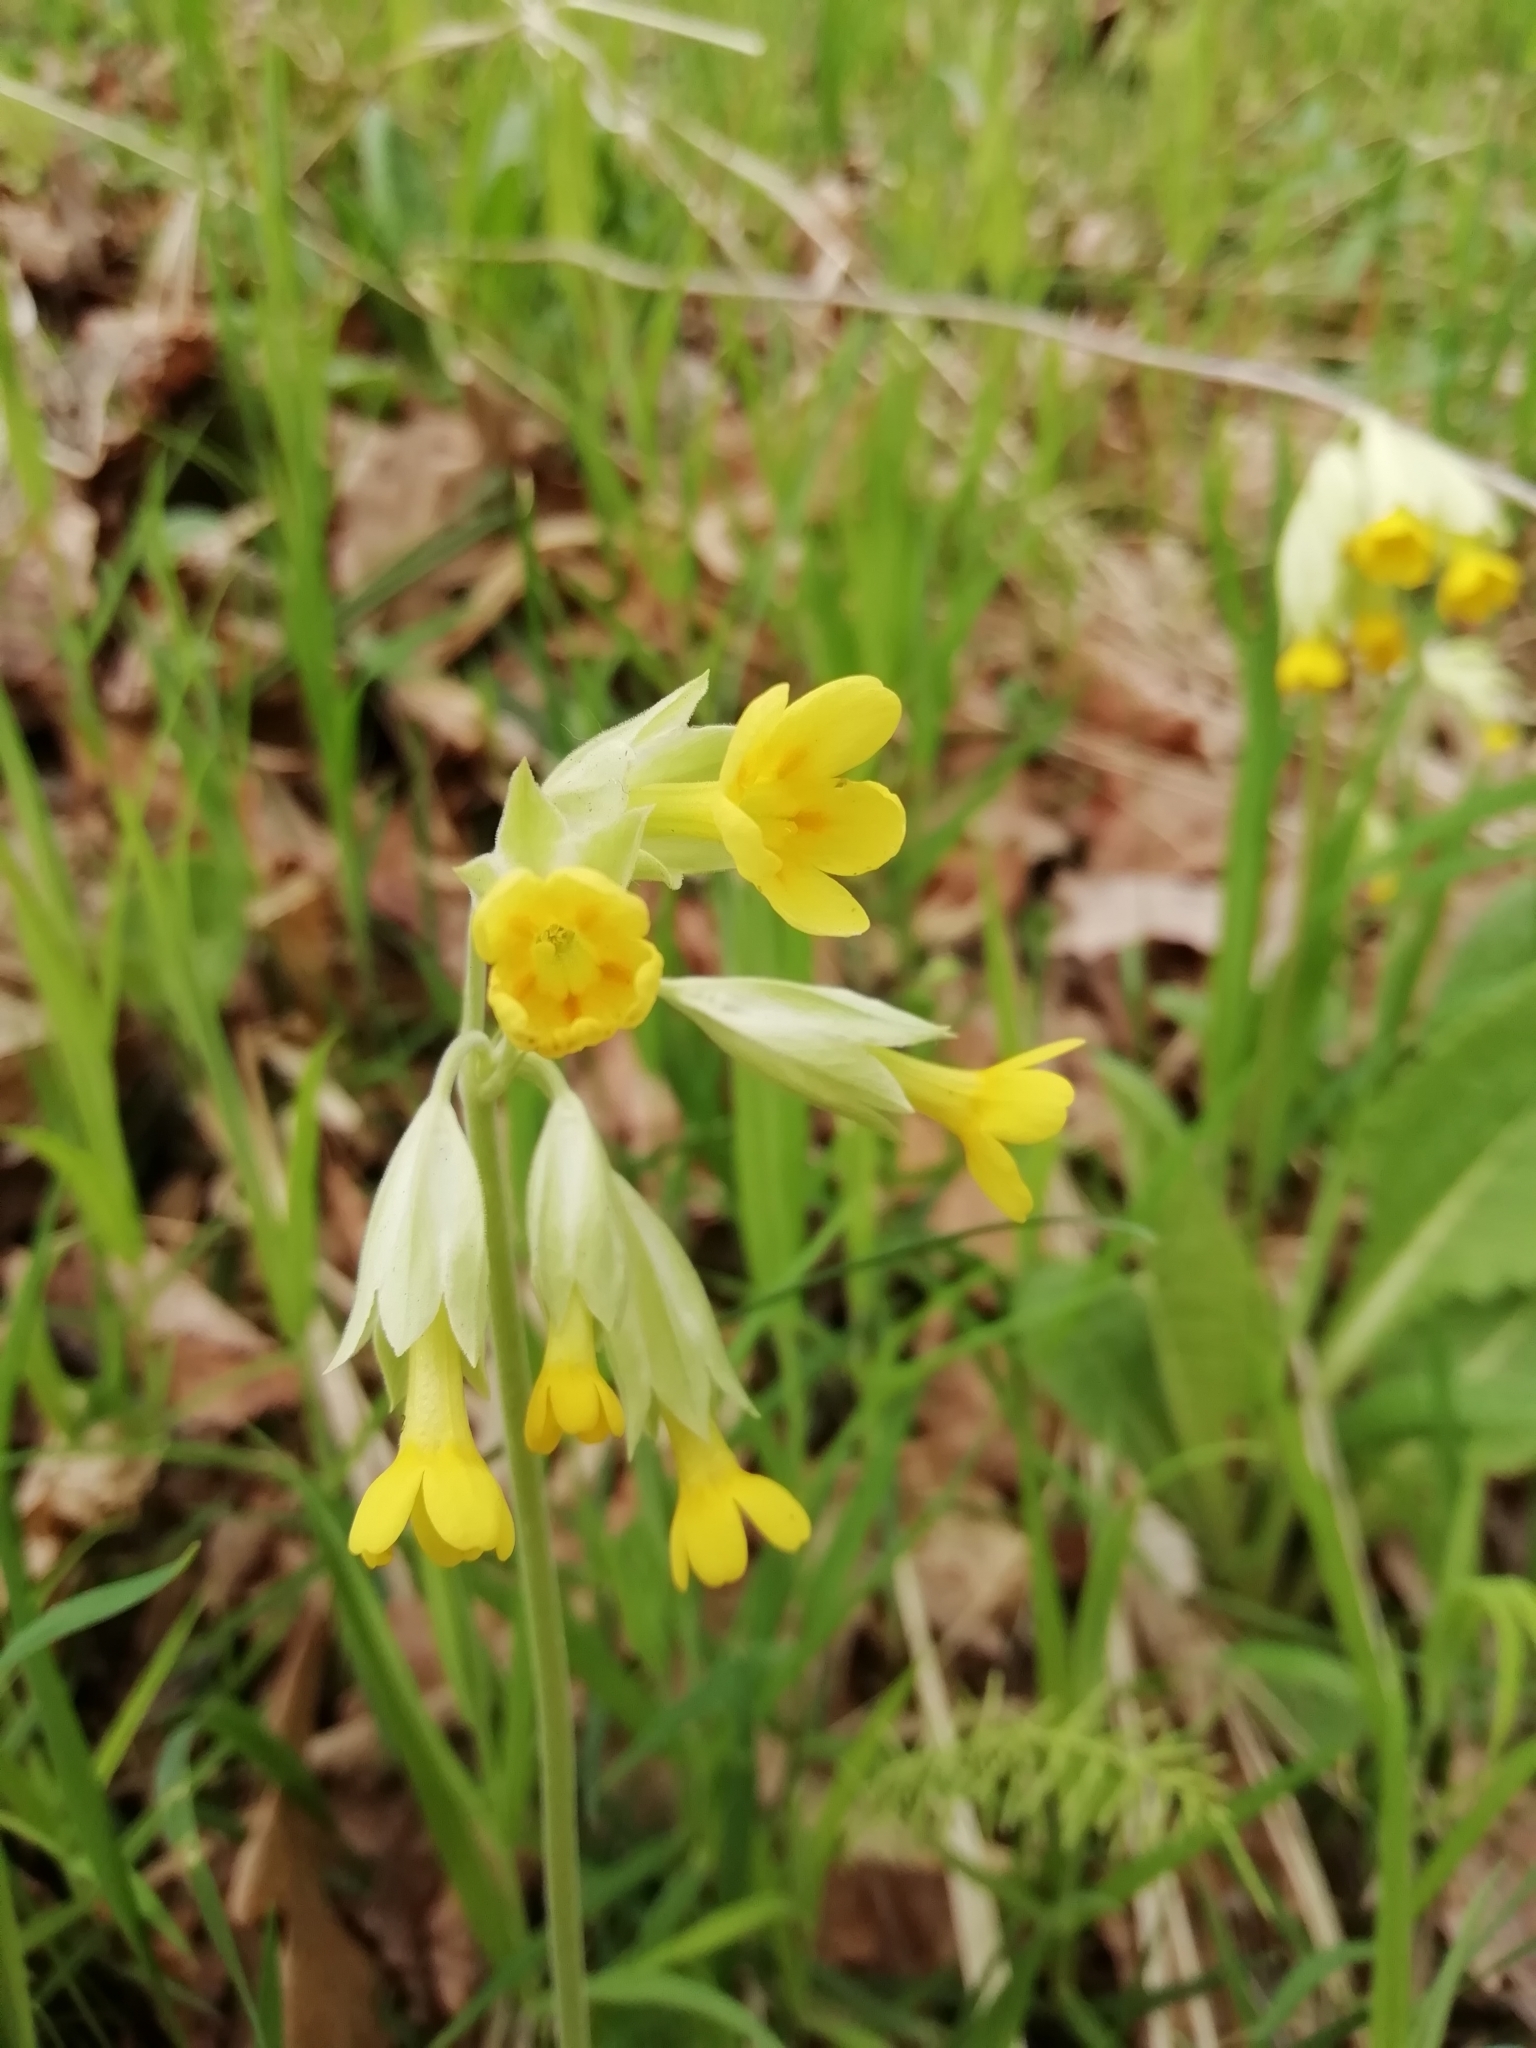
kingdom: Plantae
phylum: Tracheophyta
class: Magnoliopsida
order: Ericales
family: Primulaceae
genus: Primula
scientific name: Primula veris
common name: Cowslip
